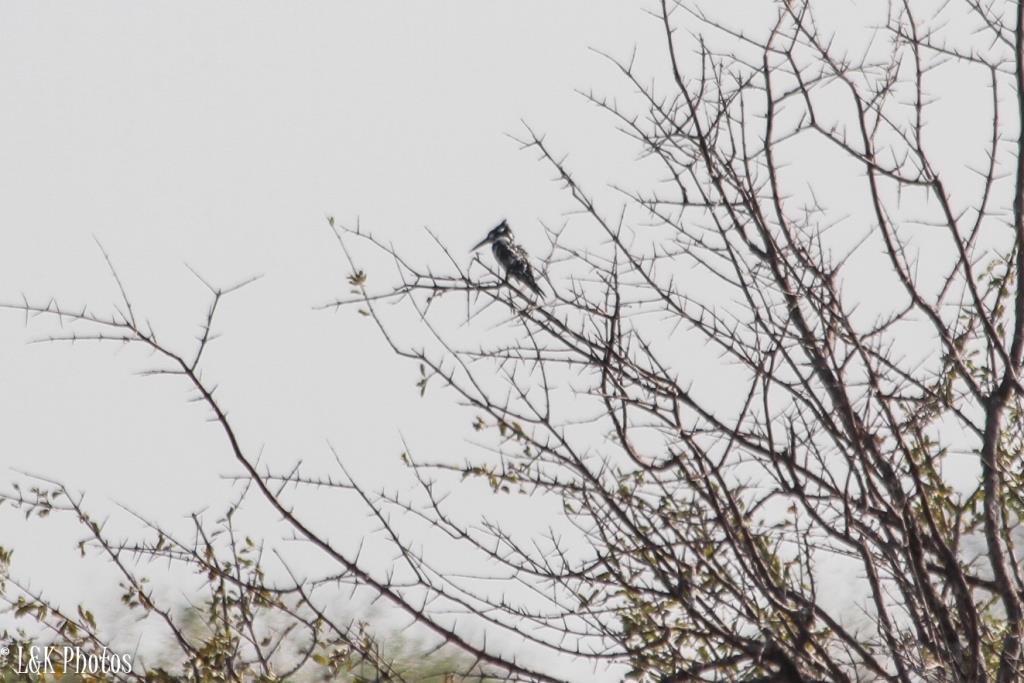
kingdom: Animalia
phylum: Chordata
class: Aves
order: Coraciiformes
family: Alcedinidae
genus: Ceryle
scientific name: Ceryle rudis
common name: Pied kingfisher
